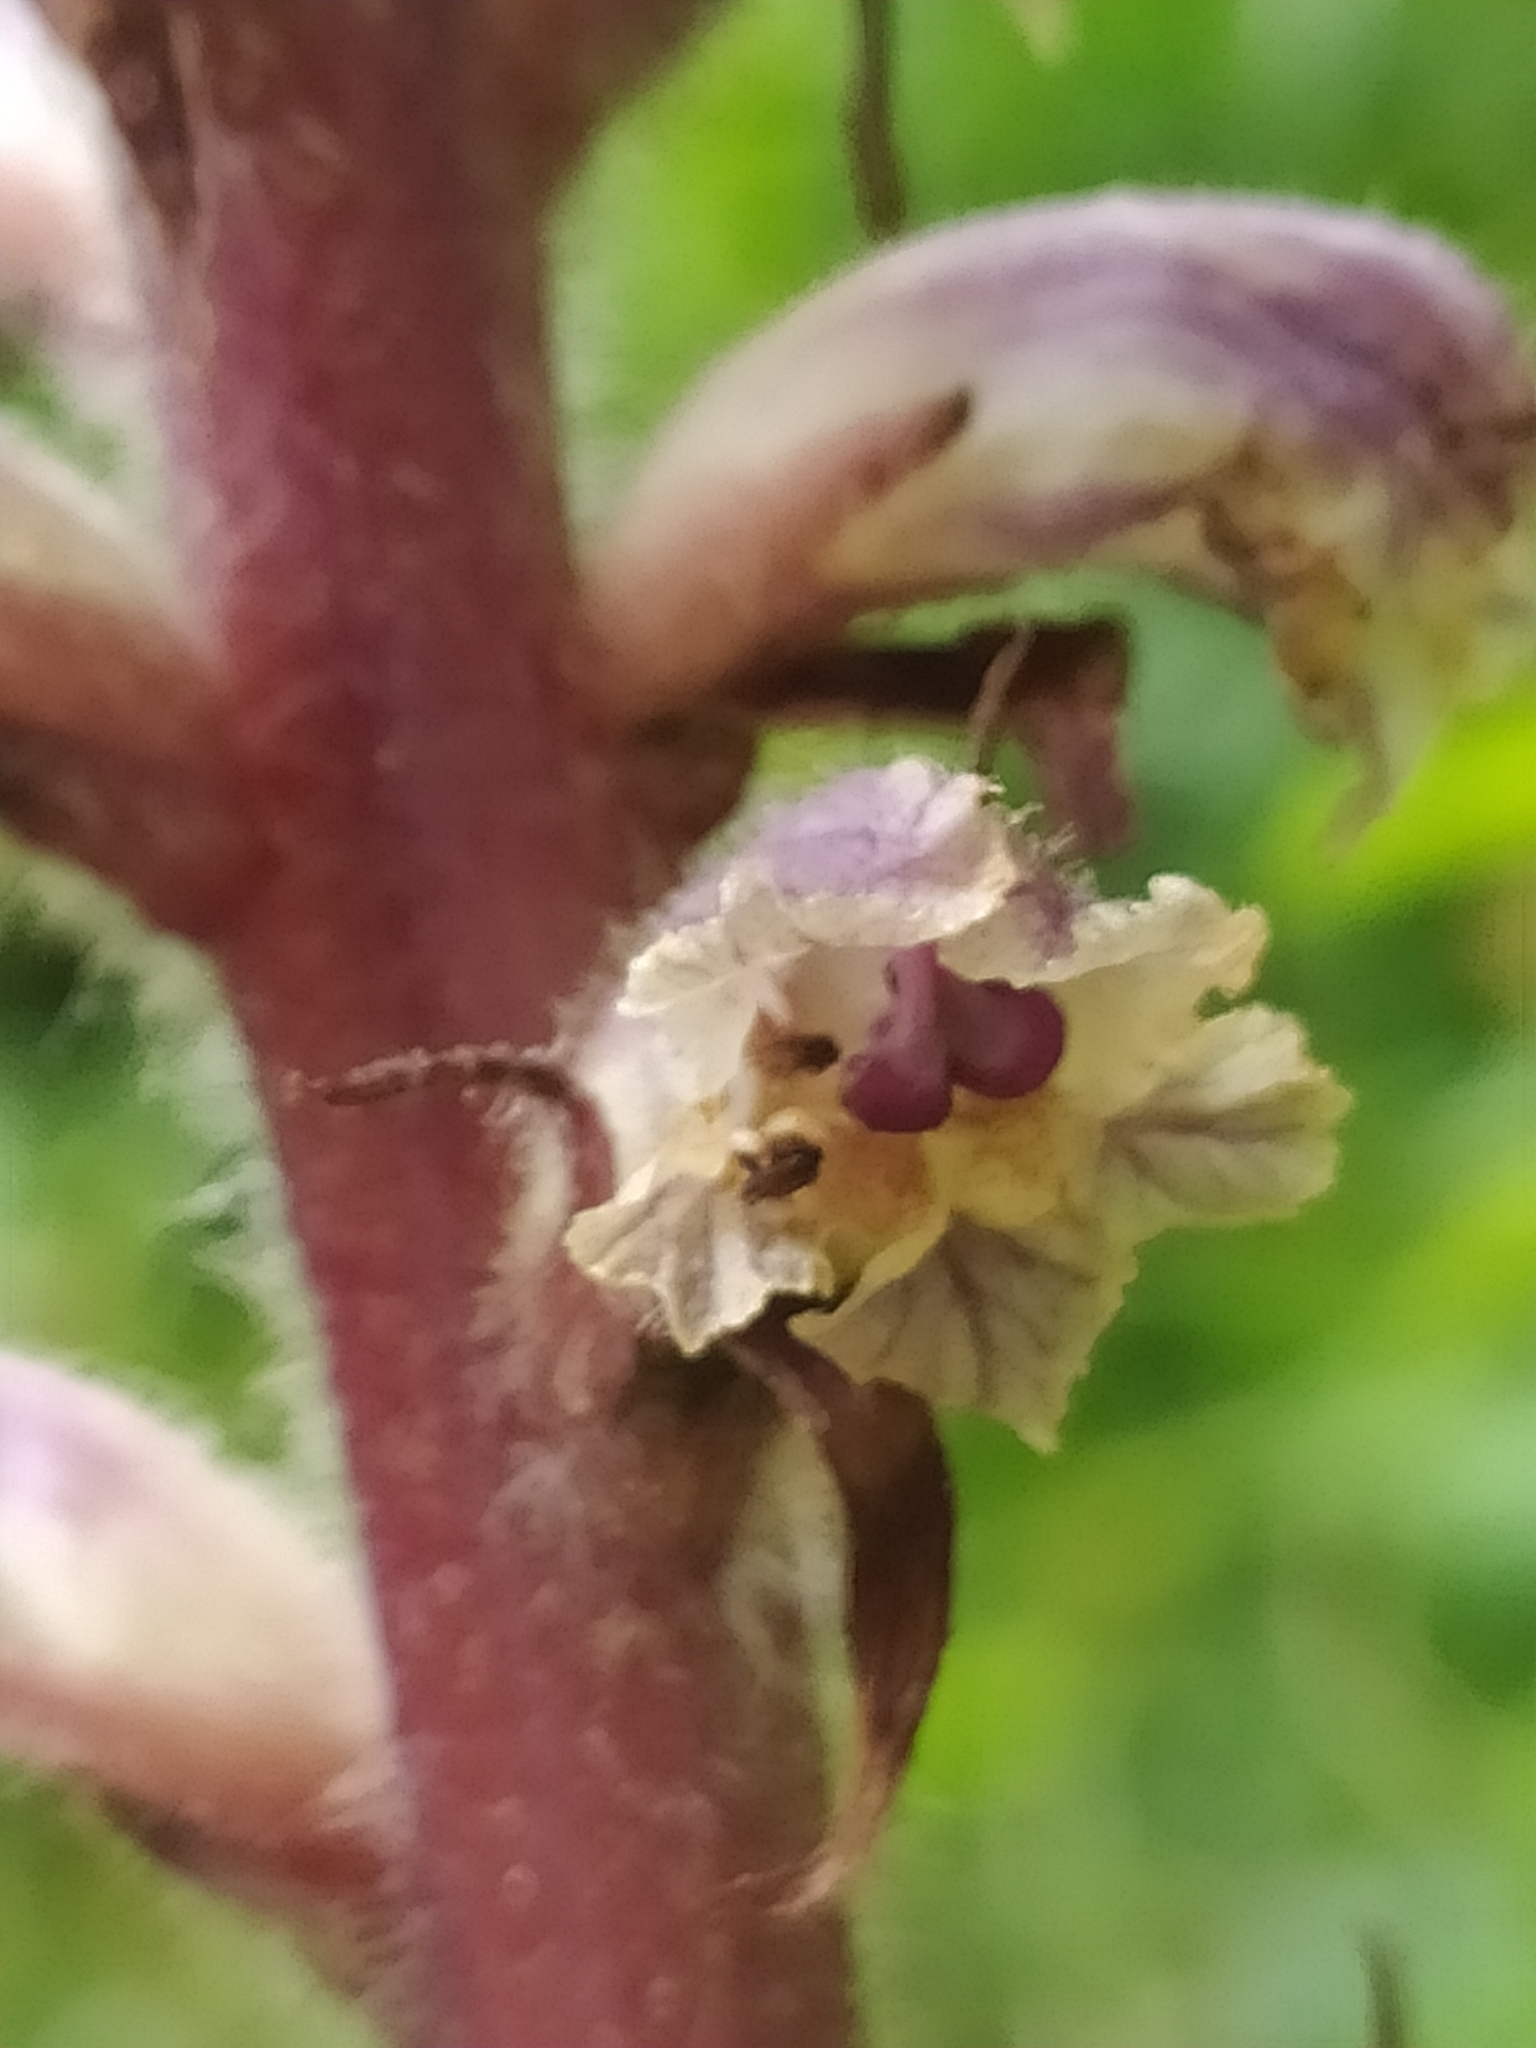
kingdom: Plantae
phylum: Tracheophyta
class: Magnoliopsida
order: Lamiales
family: Orobanchaceae
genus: Orobanche
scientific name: Orobanche minor
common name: Common broomrape
